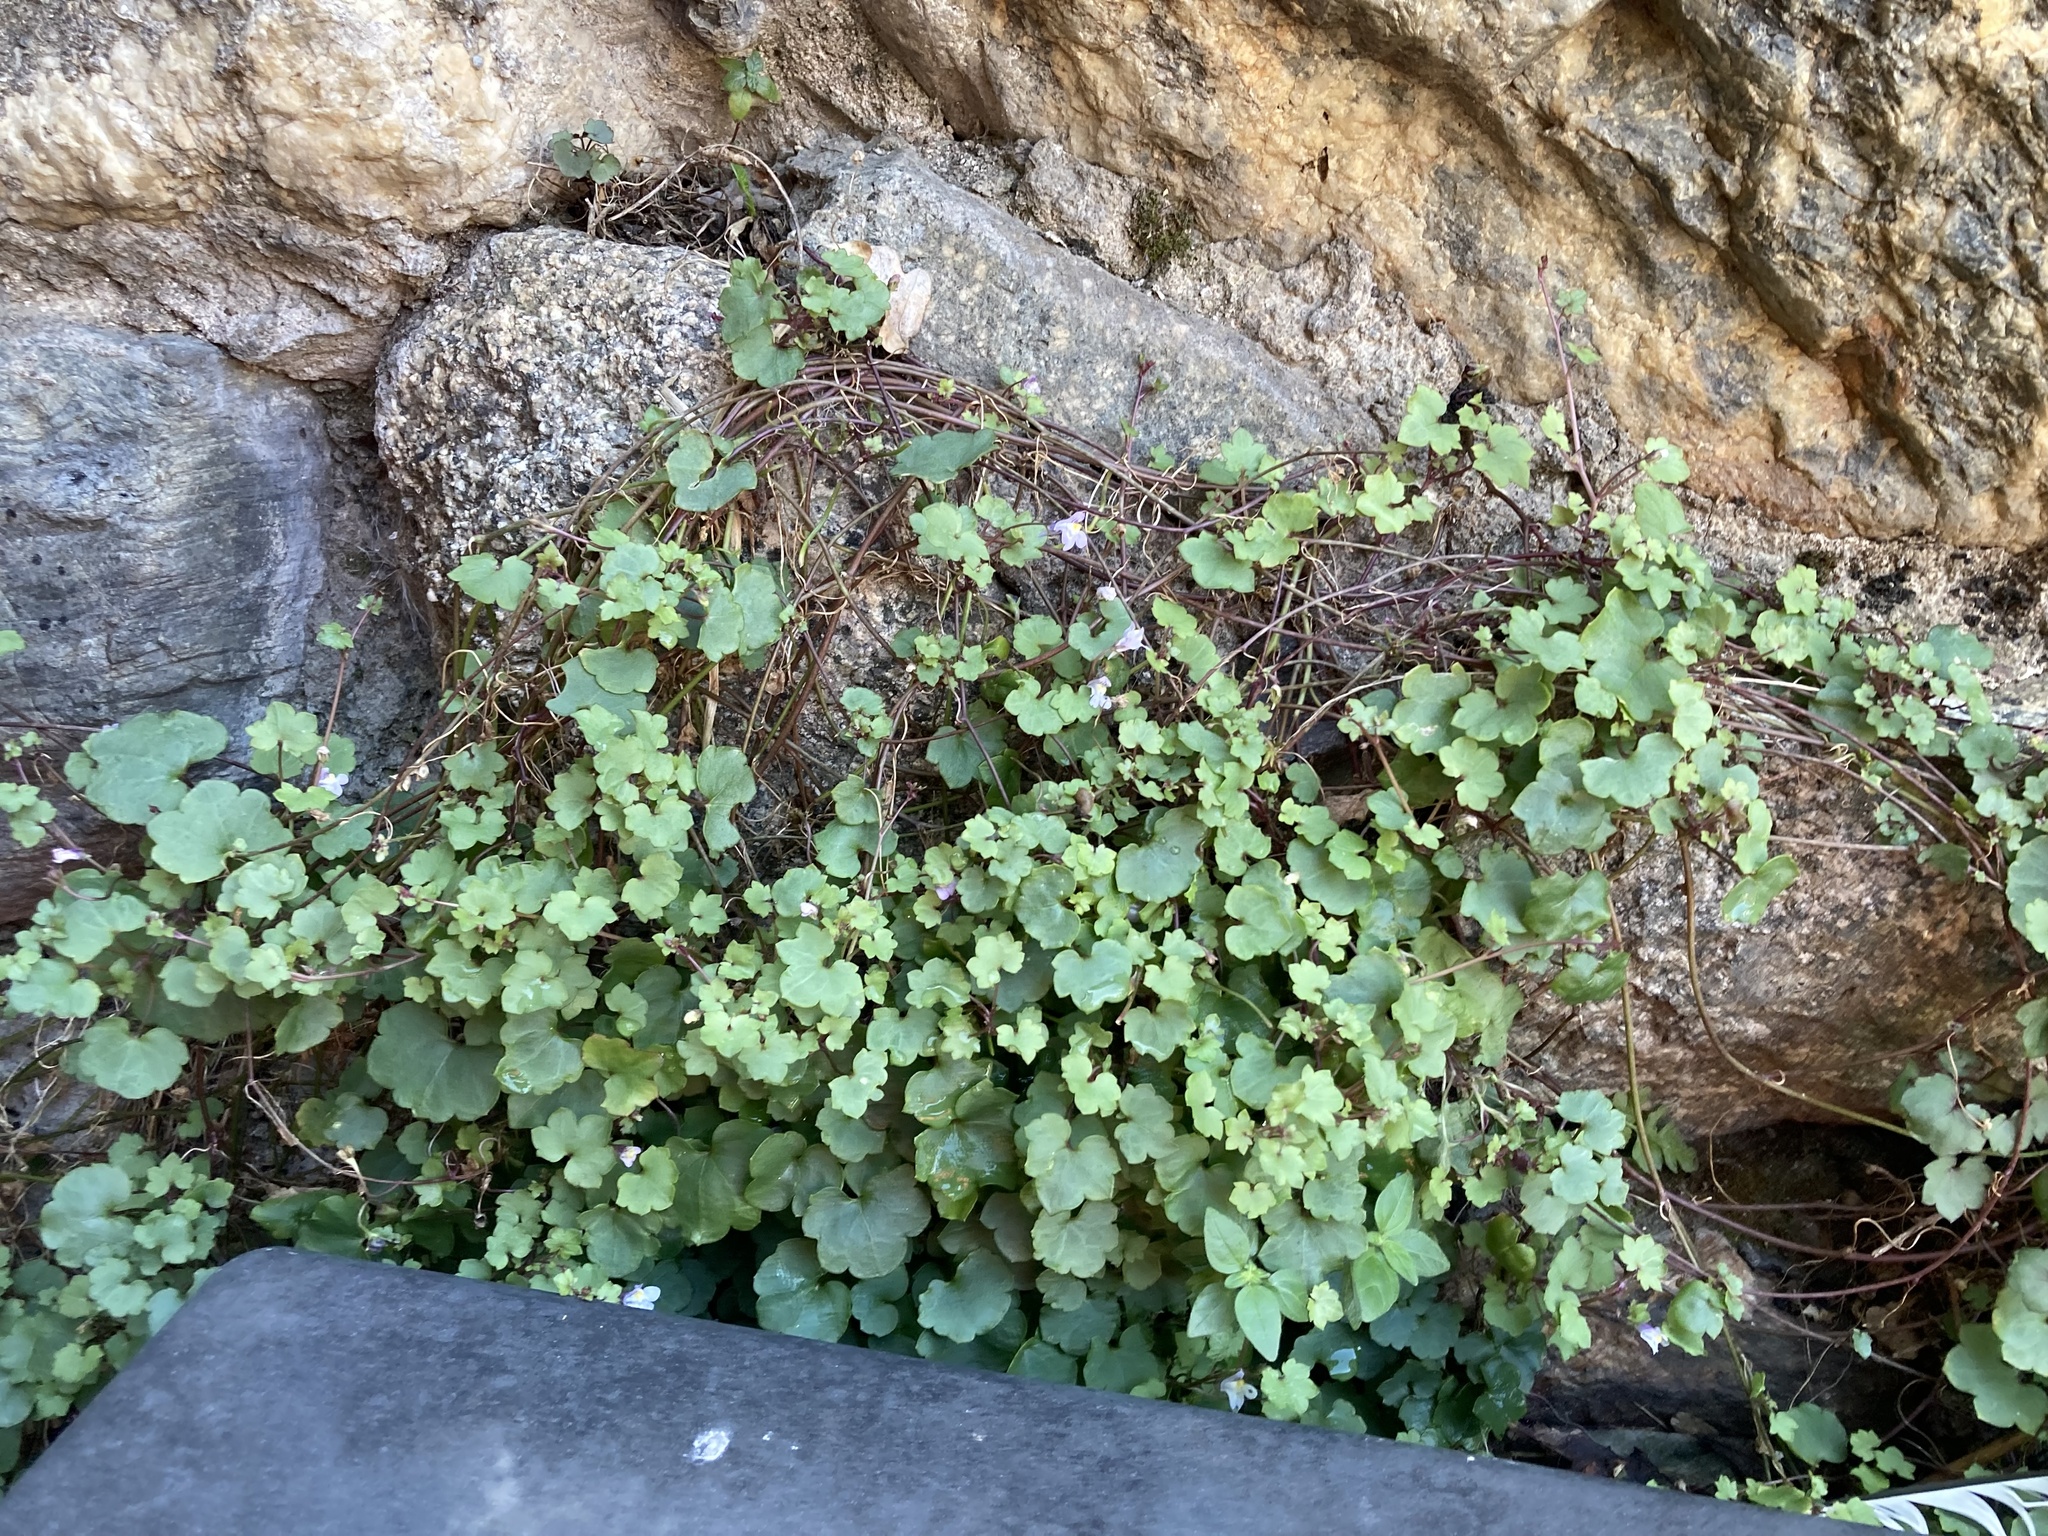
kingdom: Plantae
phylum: Tracheophyta
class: Magnoliopsida
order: Lamiales
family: Plantaginaceae
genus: Cymbalaria
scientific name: Cymbalaria muralis
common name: Ivy-leaved toadflax
